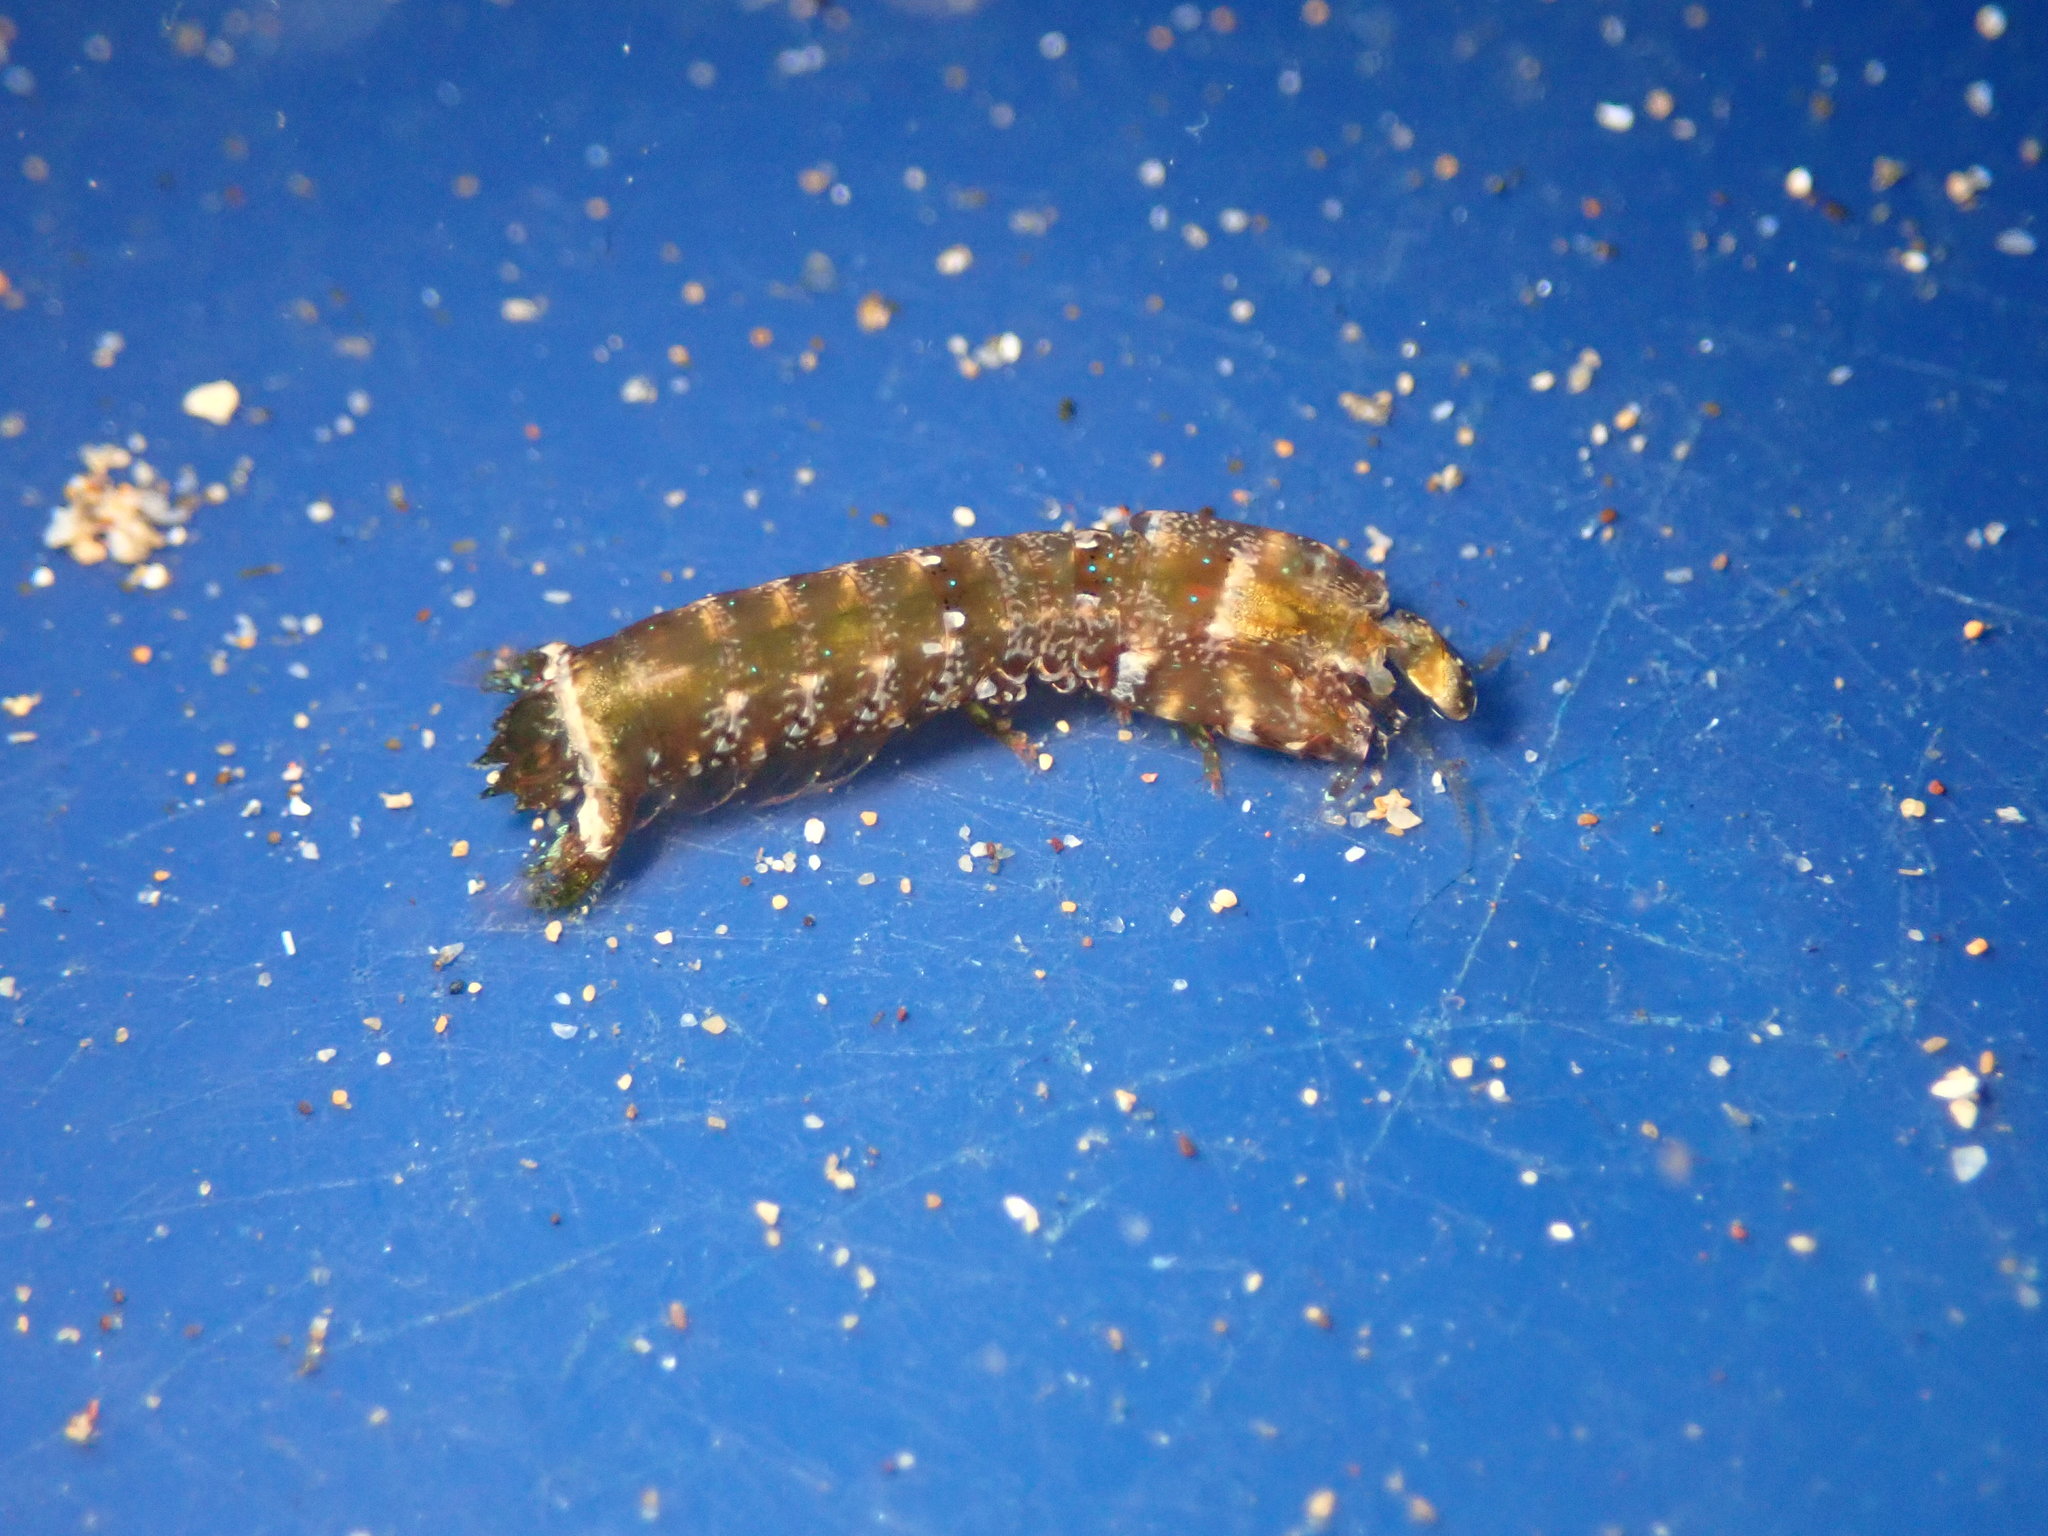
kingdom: Animalia
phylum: Arthropoda
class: Malacostraca
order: Stomatopoda
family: Pseudosquillidae
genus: Pseudosquilla
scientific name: Pseudosquilla ciliata
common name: Ciliated false squilla
